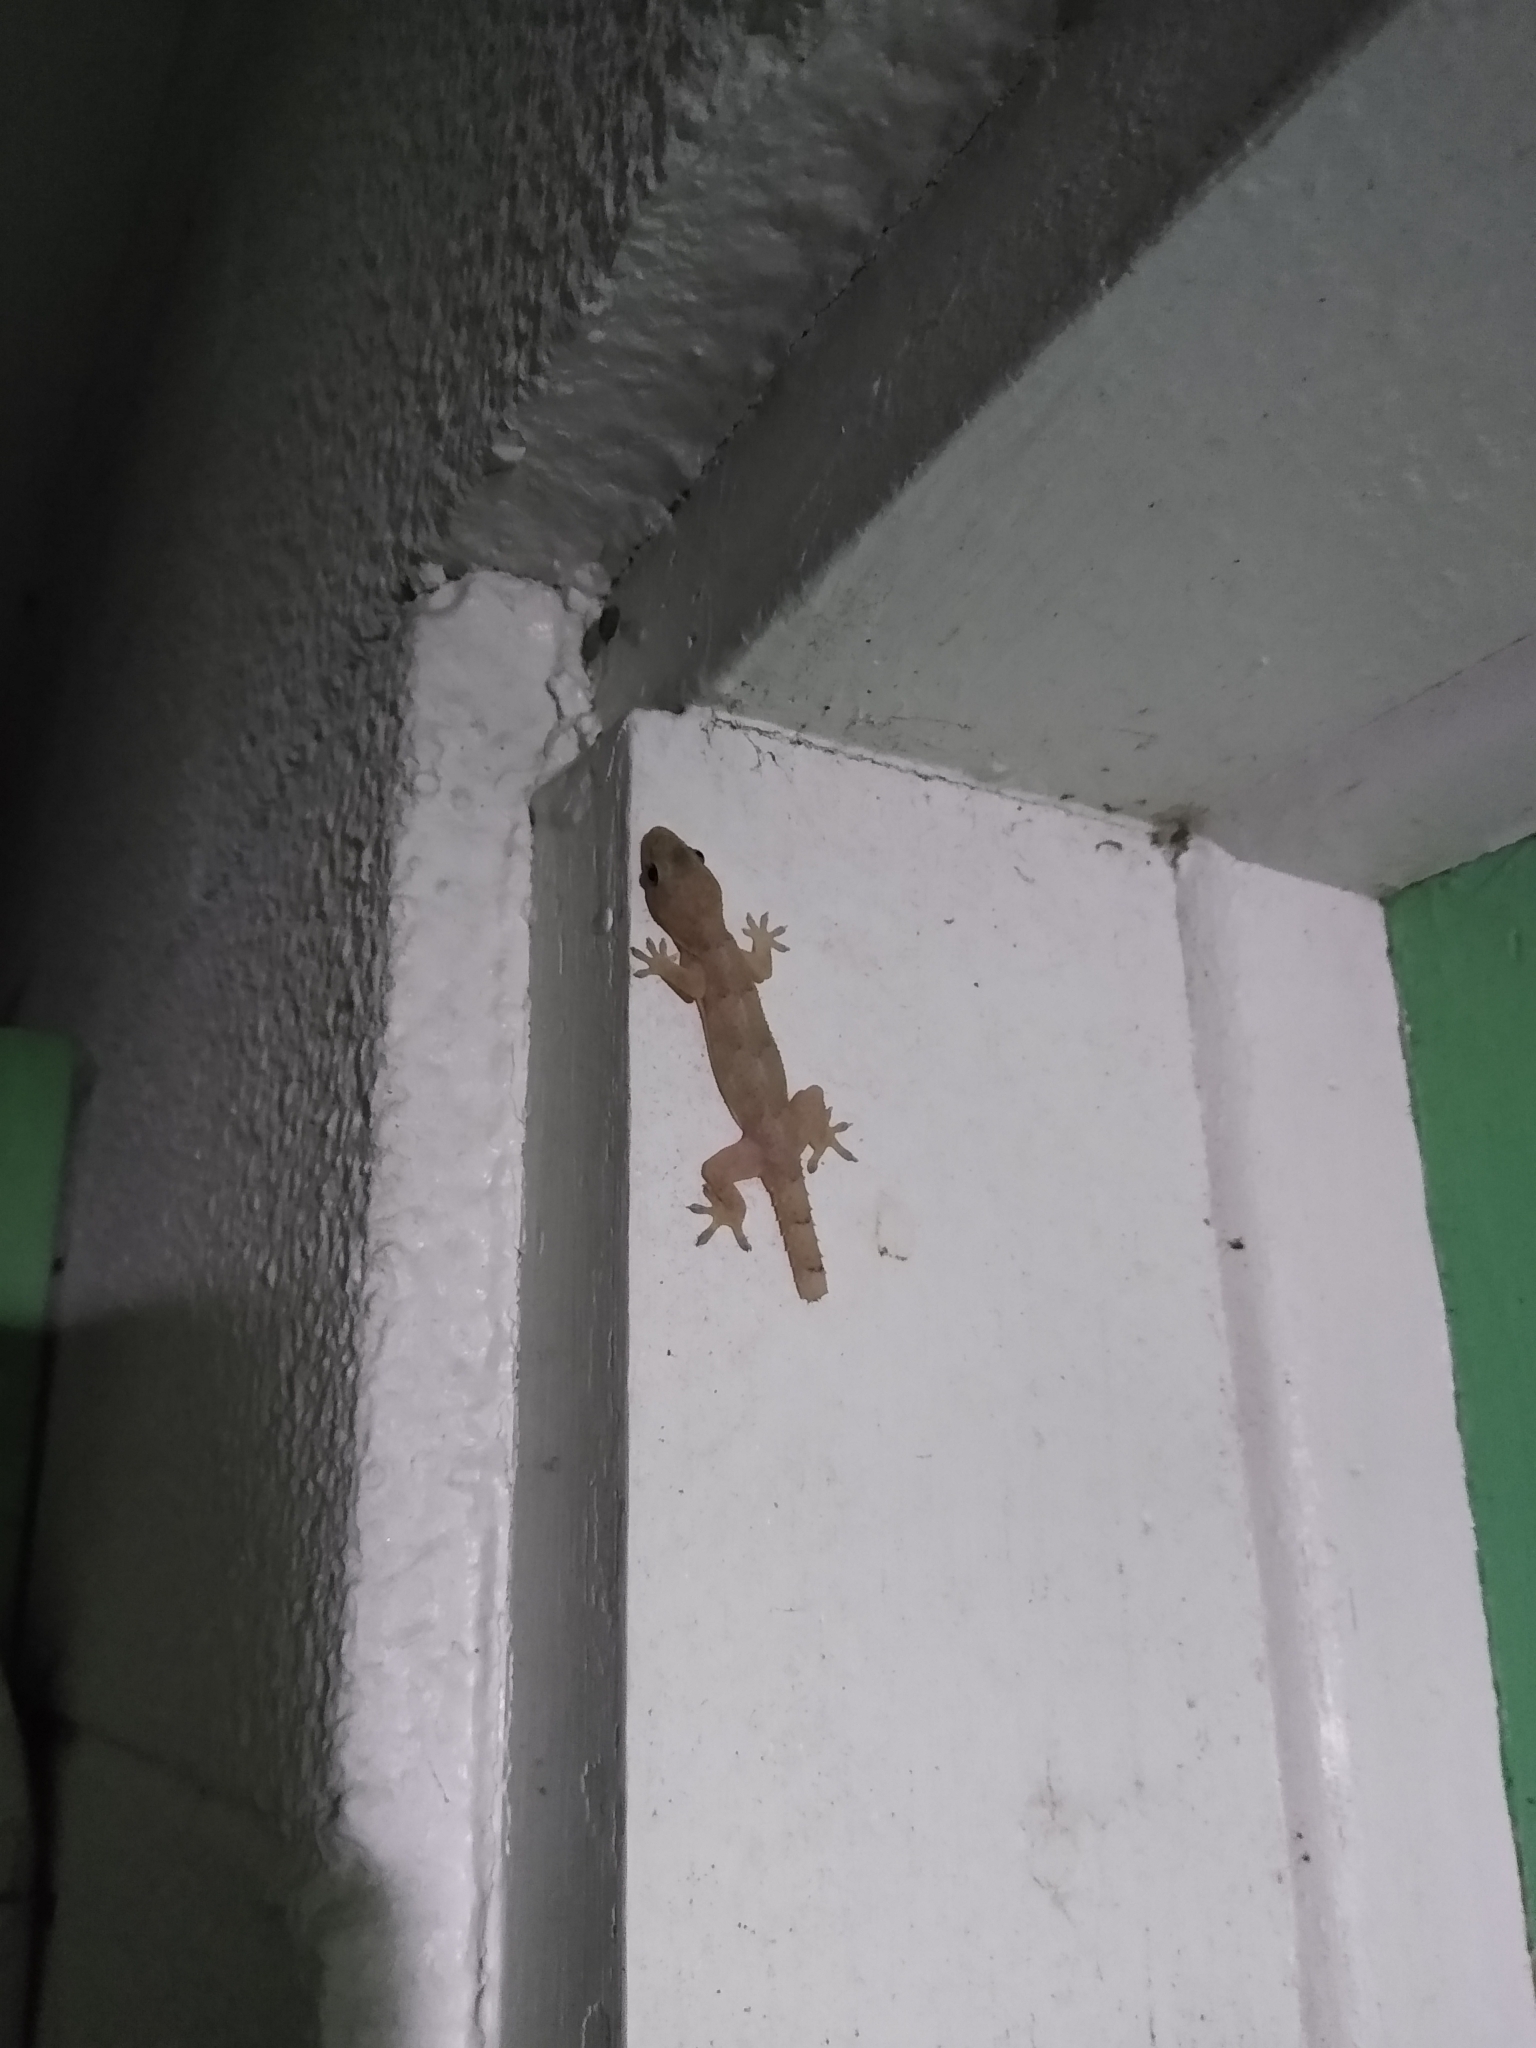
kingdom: Animalia
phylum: Chordata
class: Squamata
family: Gekkonidae
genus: Hemidactylus
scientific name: Hemidactylus mabouia
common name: House gecko
